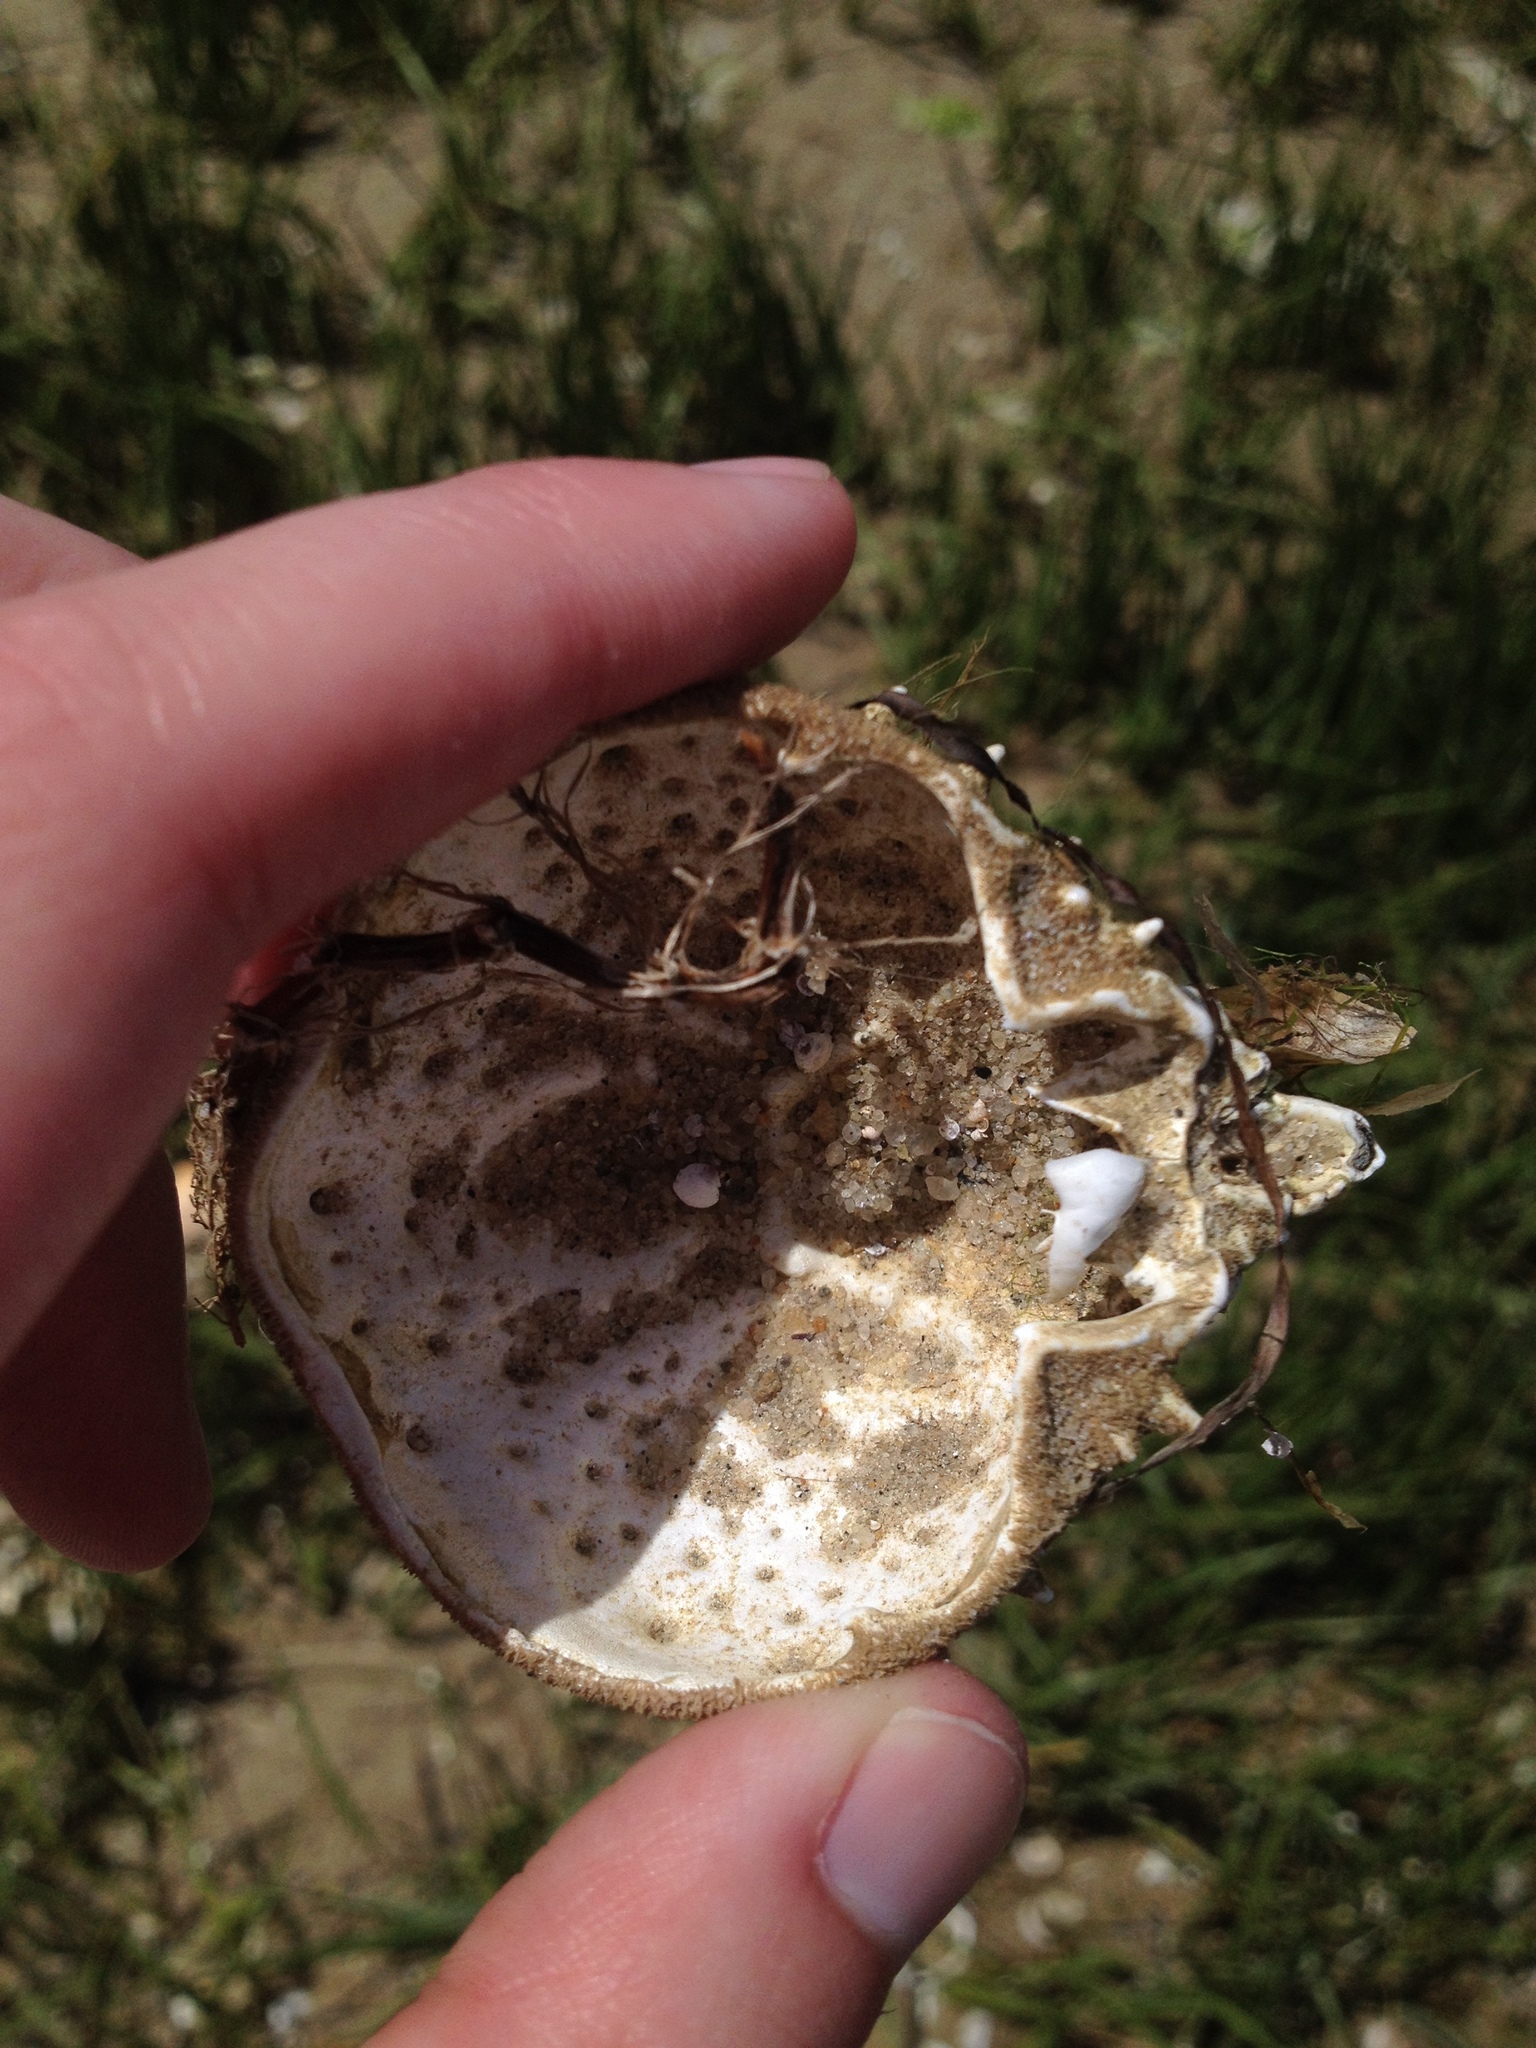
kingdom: Animalia
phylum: Arthropoda
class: Malacostraca
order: Decapoda
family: Epialtidae
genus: Libinia
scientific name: Libinia emarginata
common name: Common spider crab
